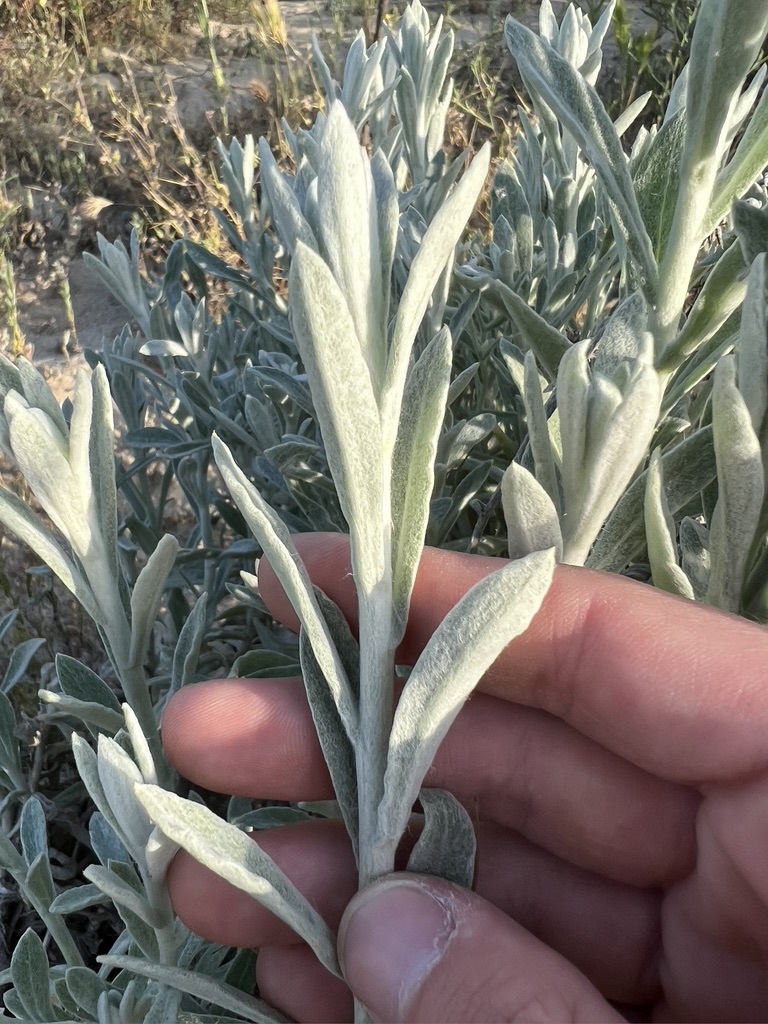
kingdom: Plantae
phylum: Tracheophyta
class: Magnoliopsida
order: Asterales
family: Asteraceae
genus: Pseudognaphalium
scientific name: Pseudognaphalium microcephalum
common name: San diego rabbit-tobacco
